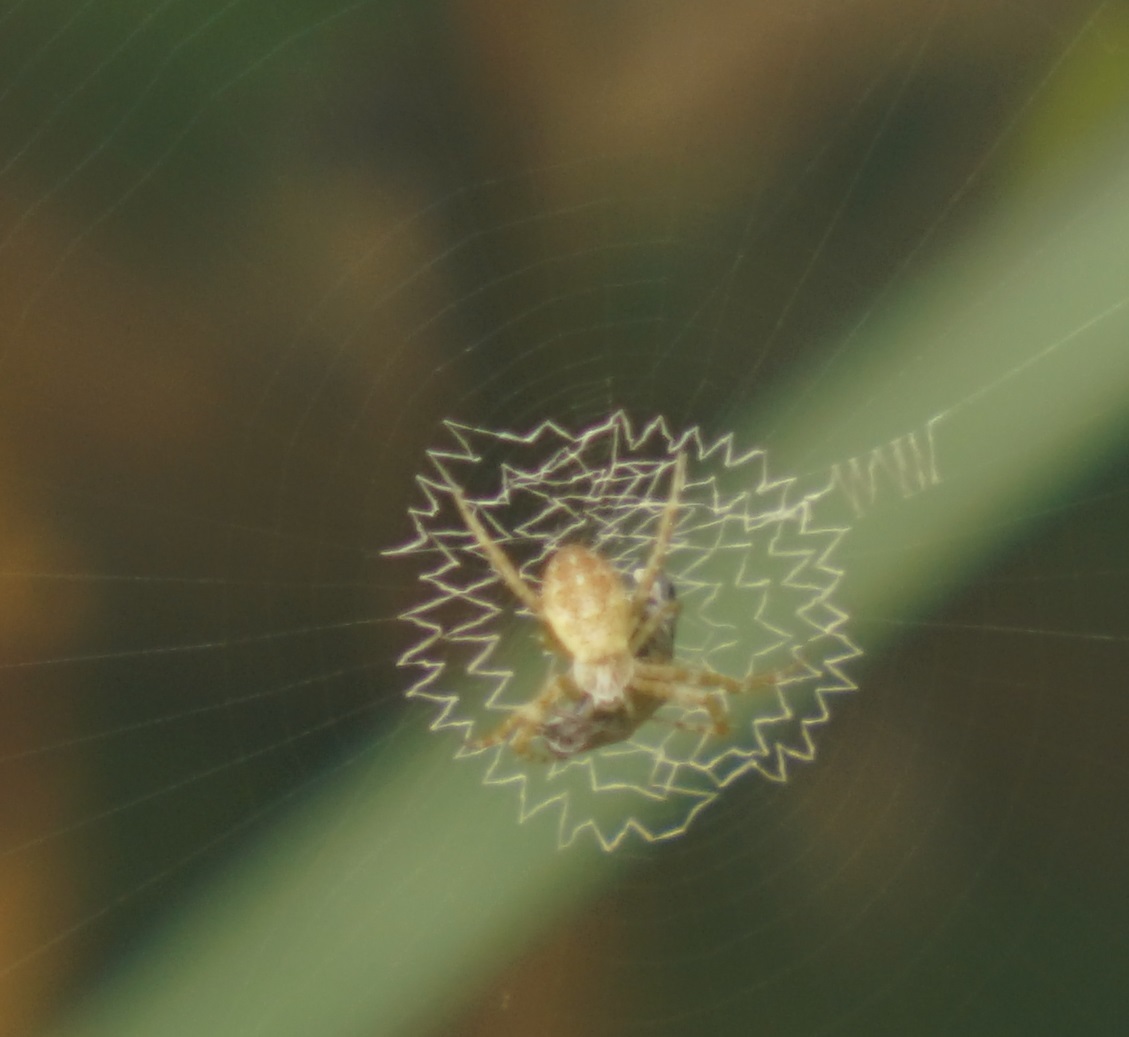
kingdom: Animalia
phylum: Arthropoda
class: Arachnida
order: Araneae
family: Araneidae
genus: Argiope
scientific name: Argiope keyserlingi
